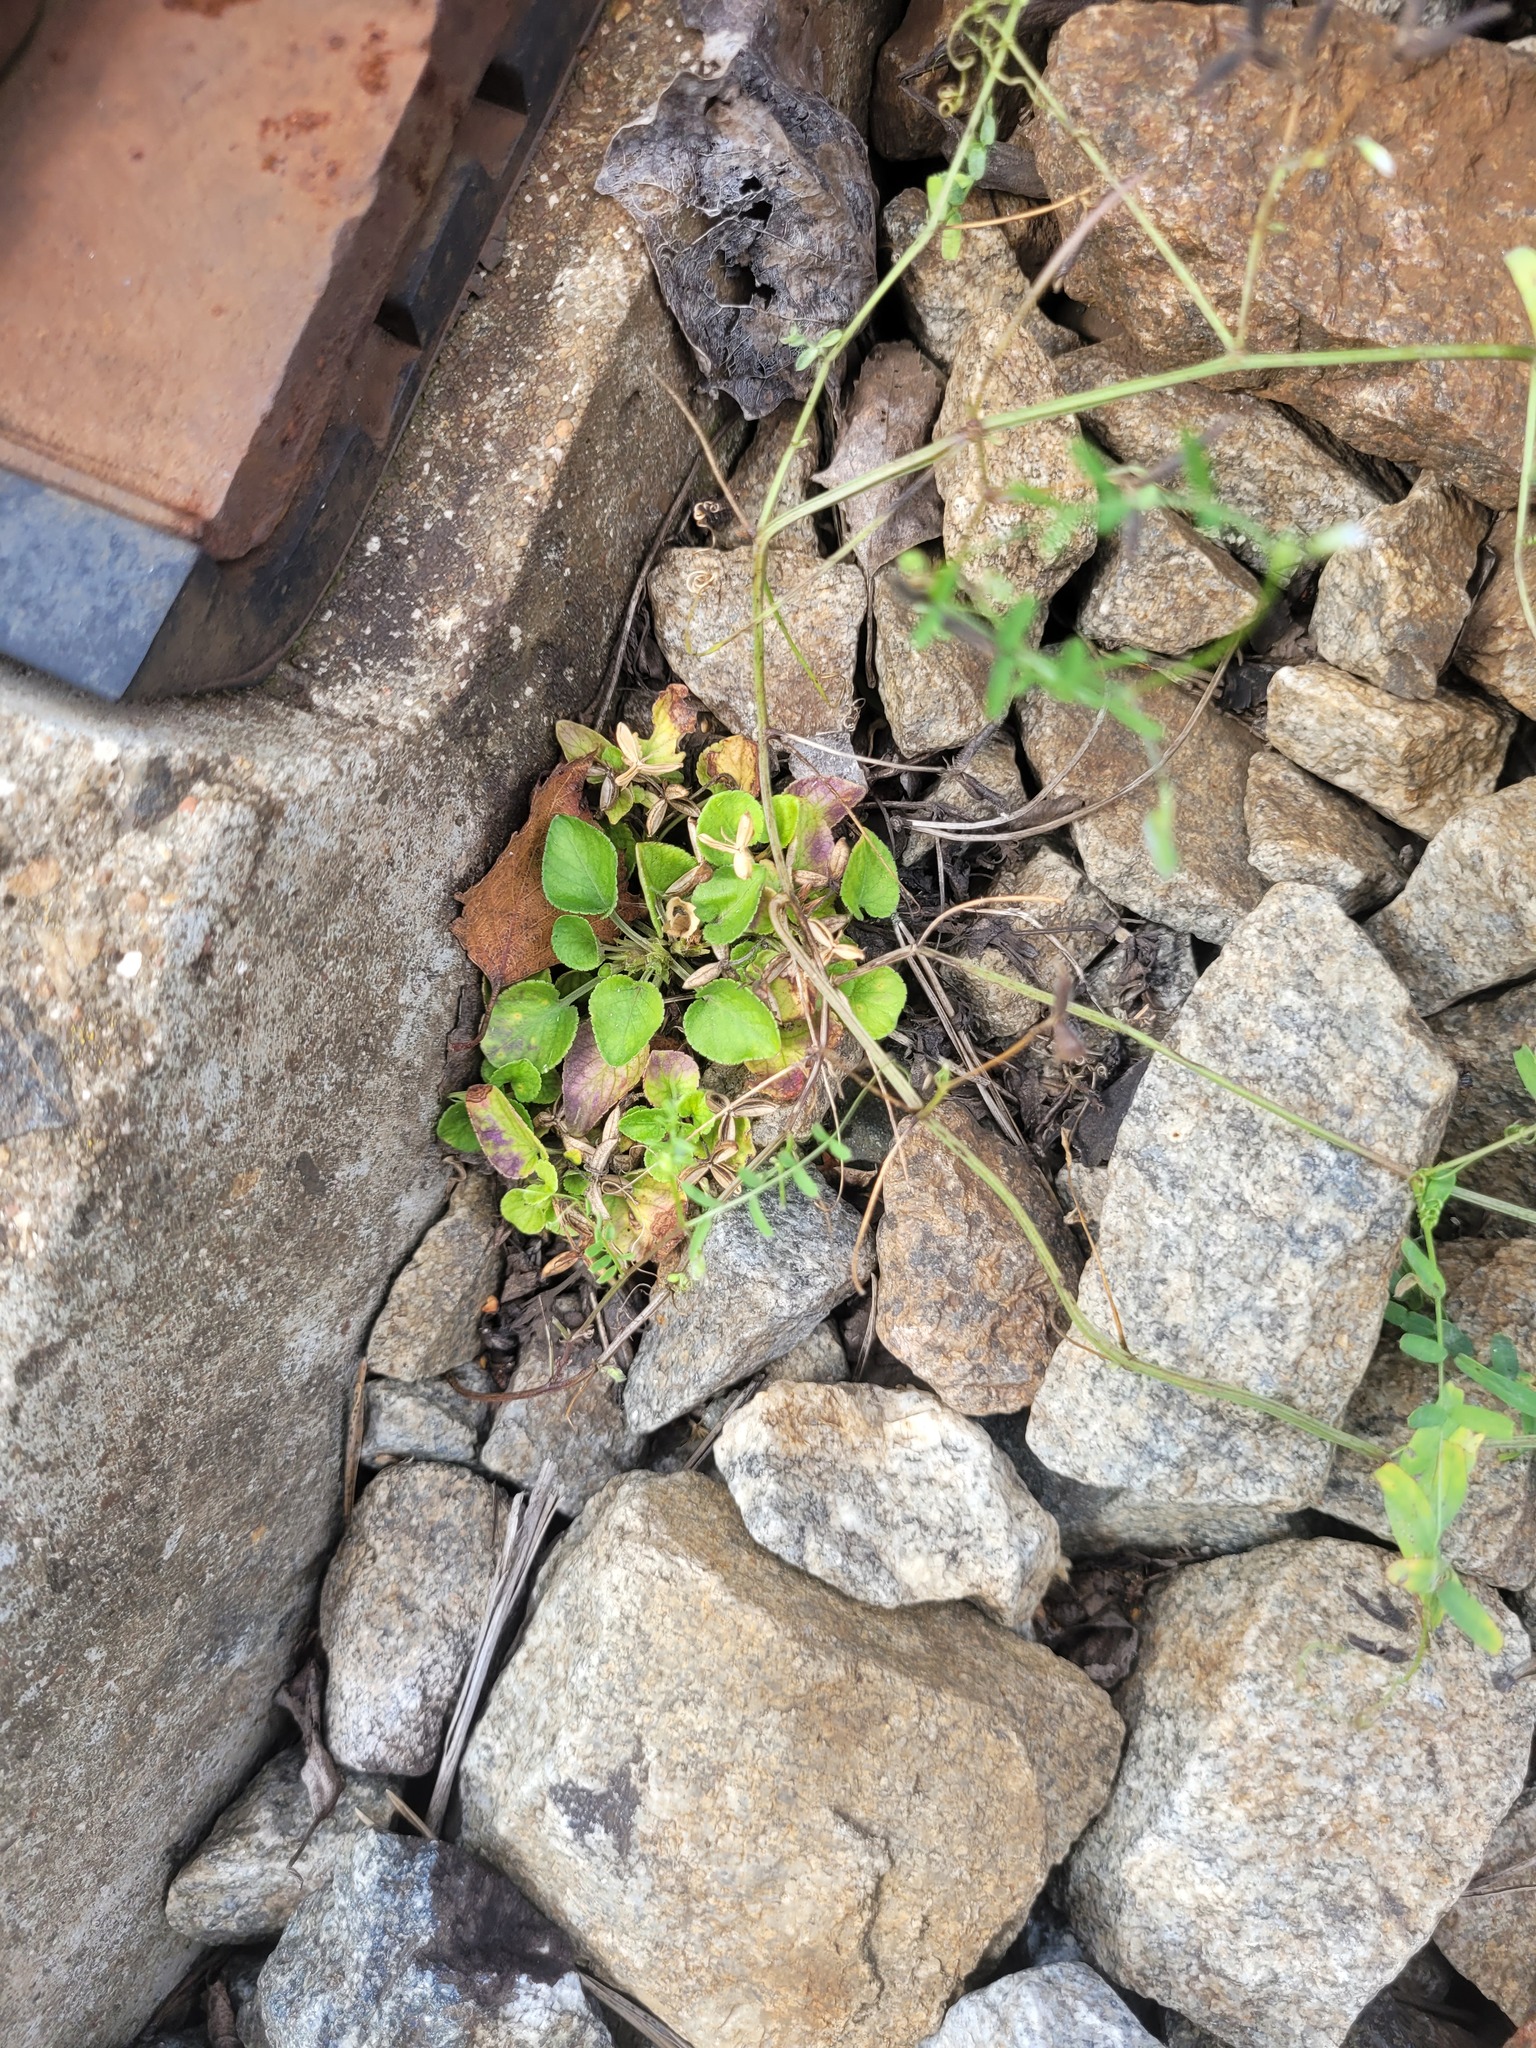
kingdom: Plantae
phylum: Tracheophyta
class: Magnoliopsida
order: Malpighiales
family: Violaceae
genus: Viola
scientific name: Viola rupestris
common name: Teesdale violet
